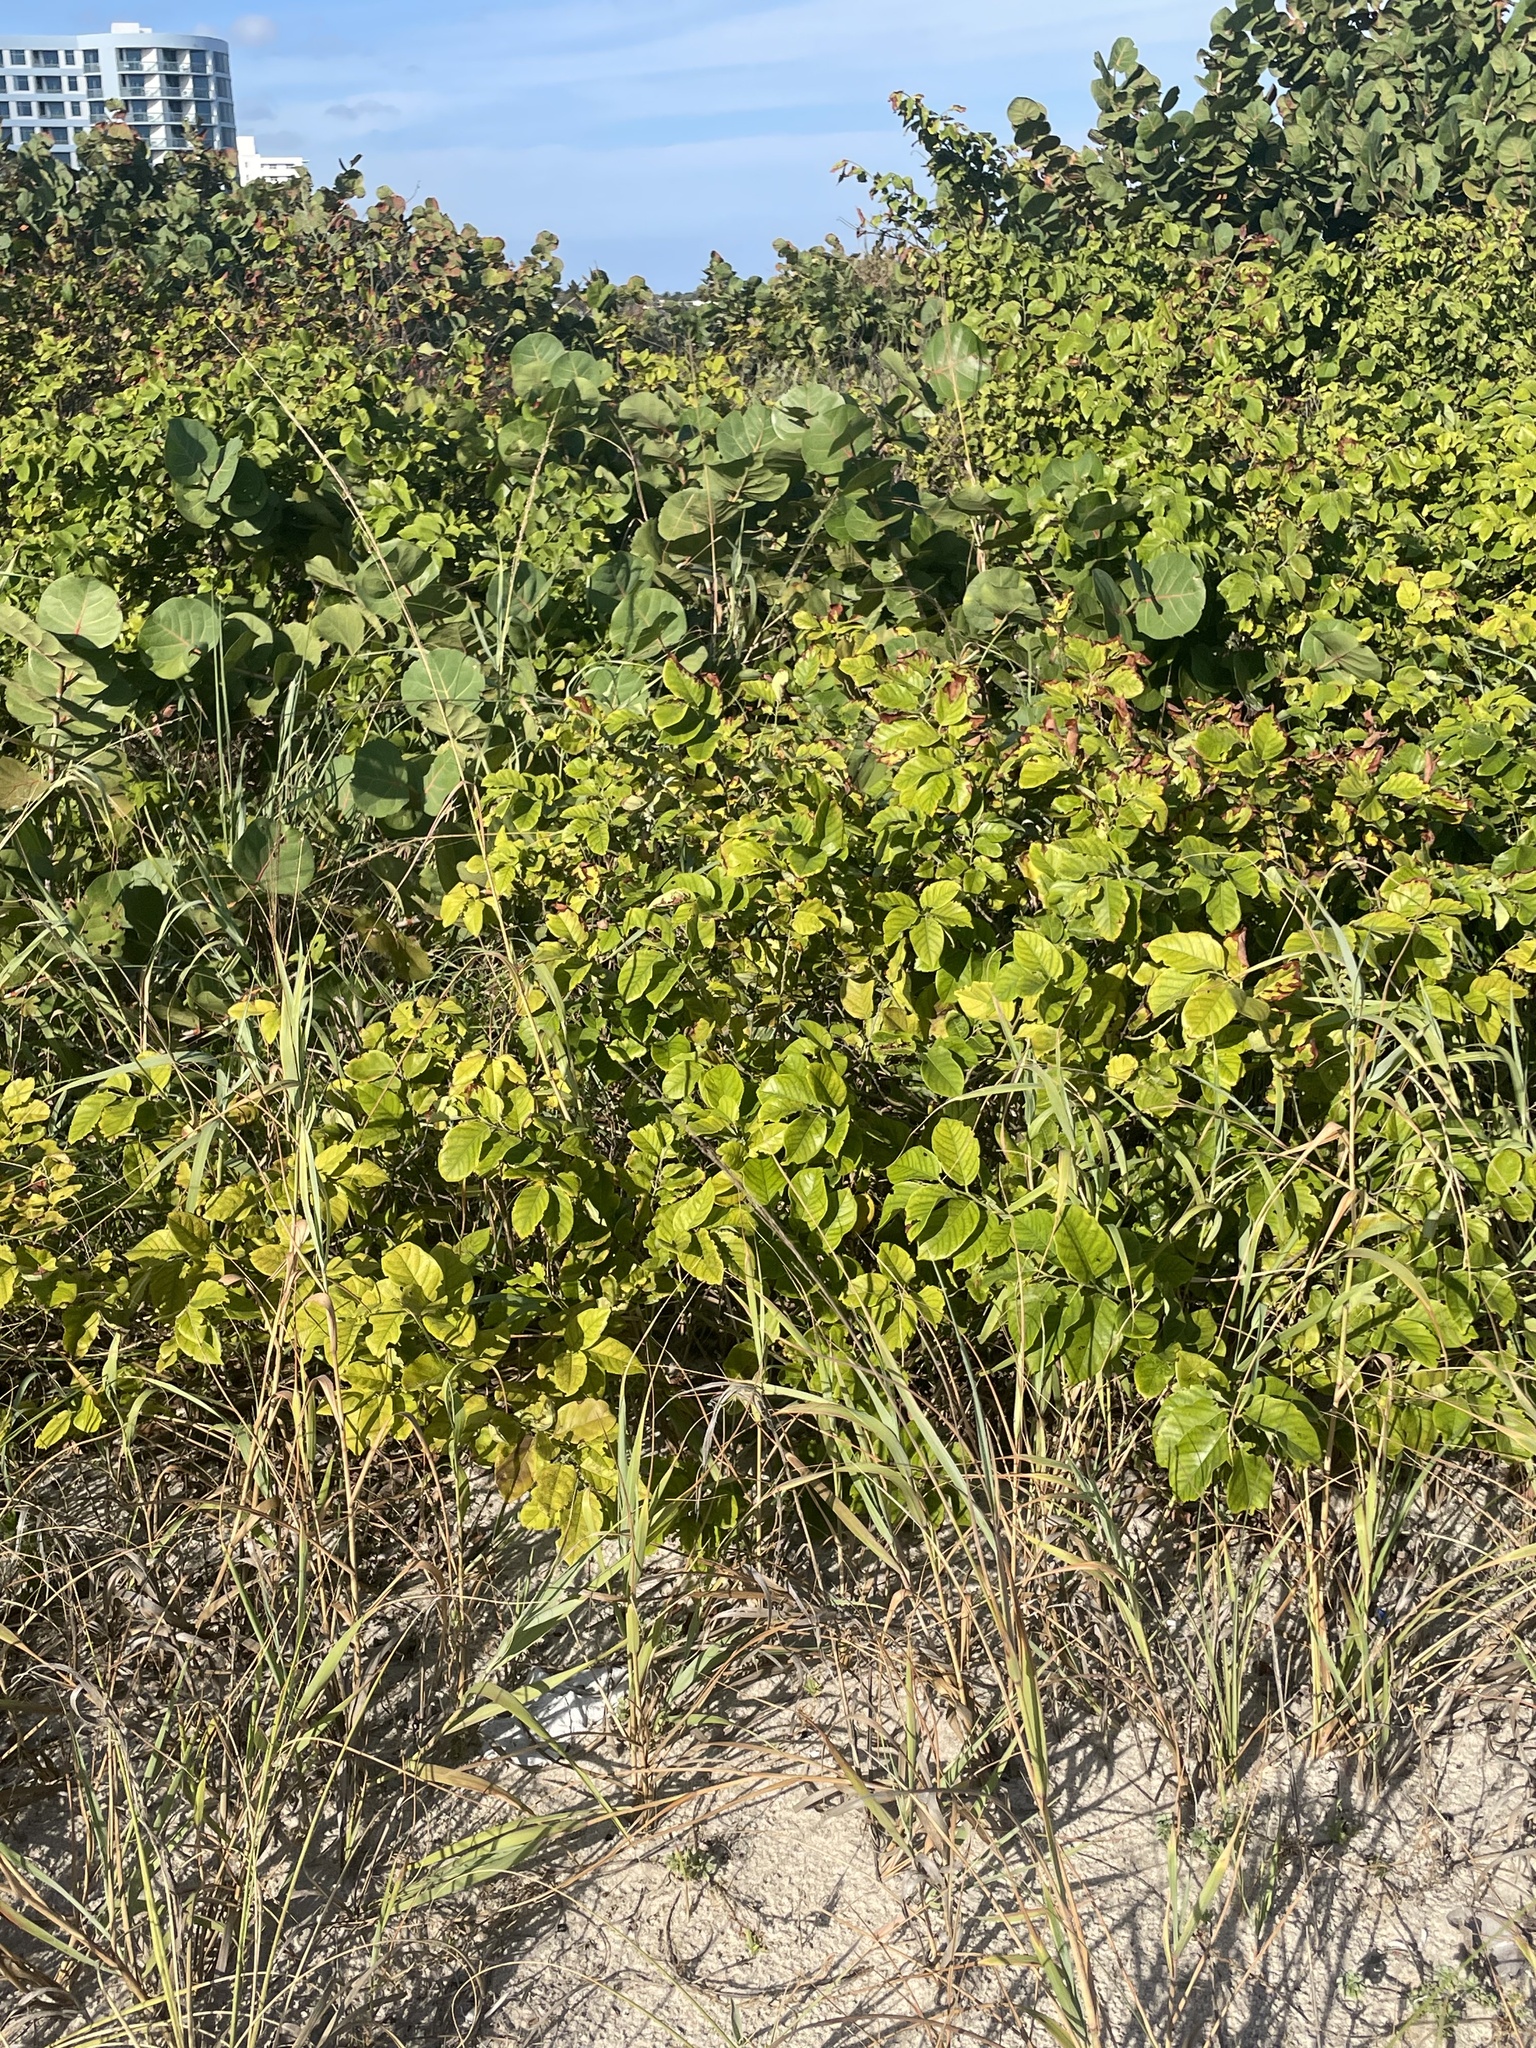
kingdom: Plantae
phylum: Tracheophyta
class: Magnoliopsida
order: Fabales
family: Fabaceae
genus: Dalbergia
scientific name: Dalbergia ecastaphyllum
